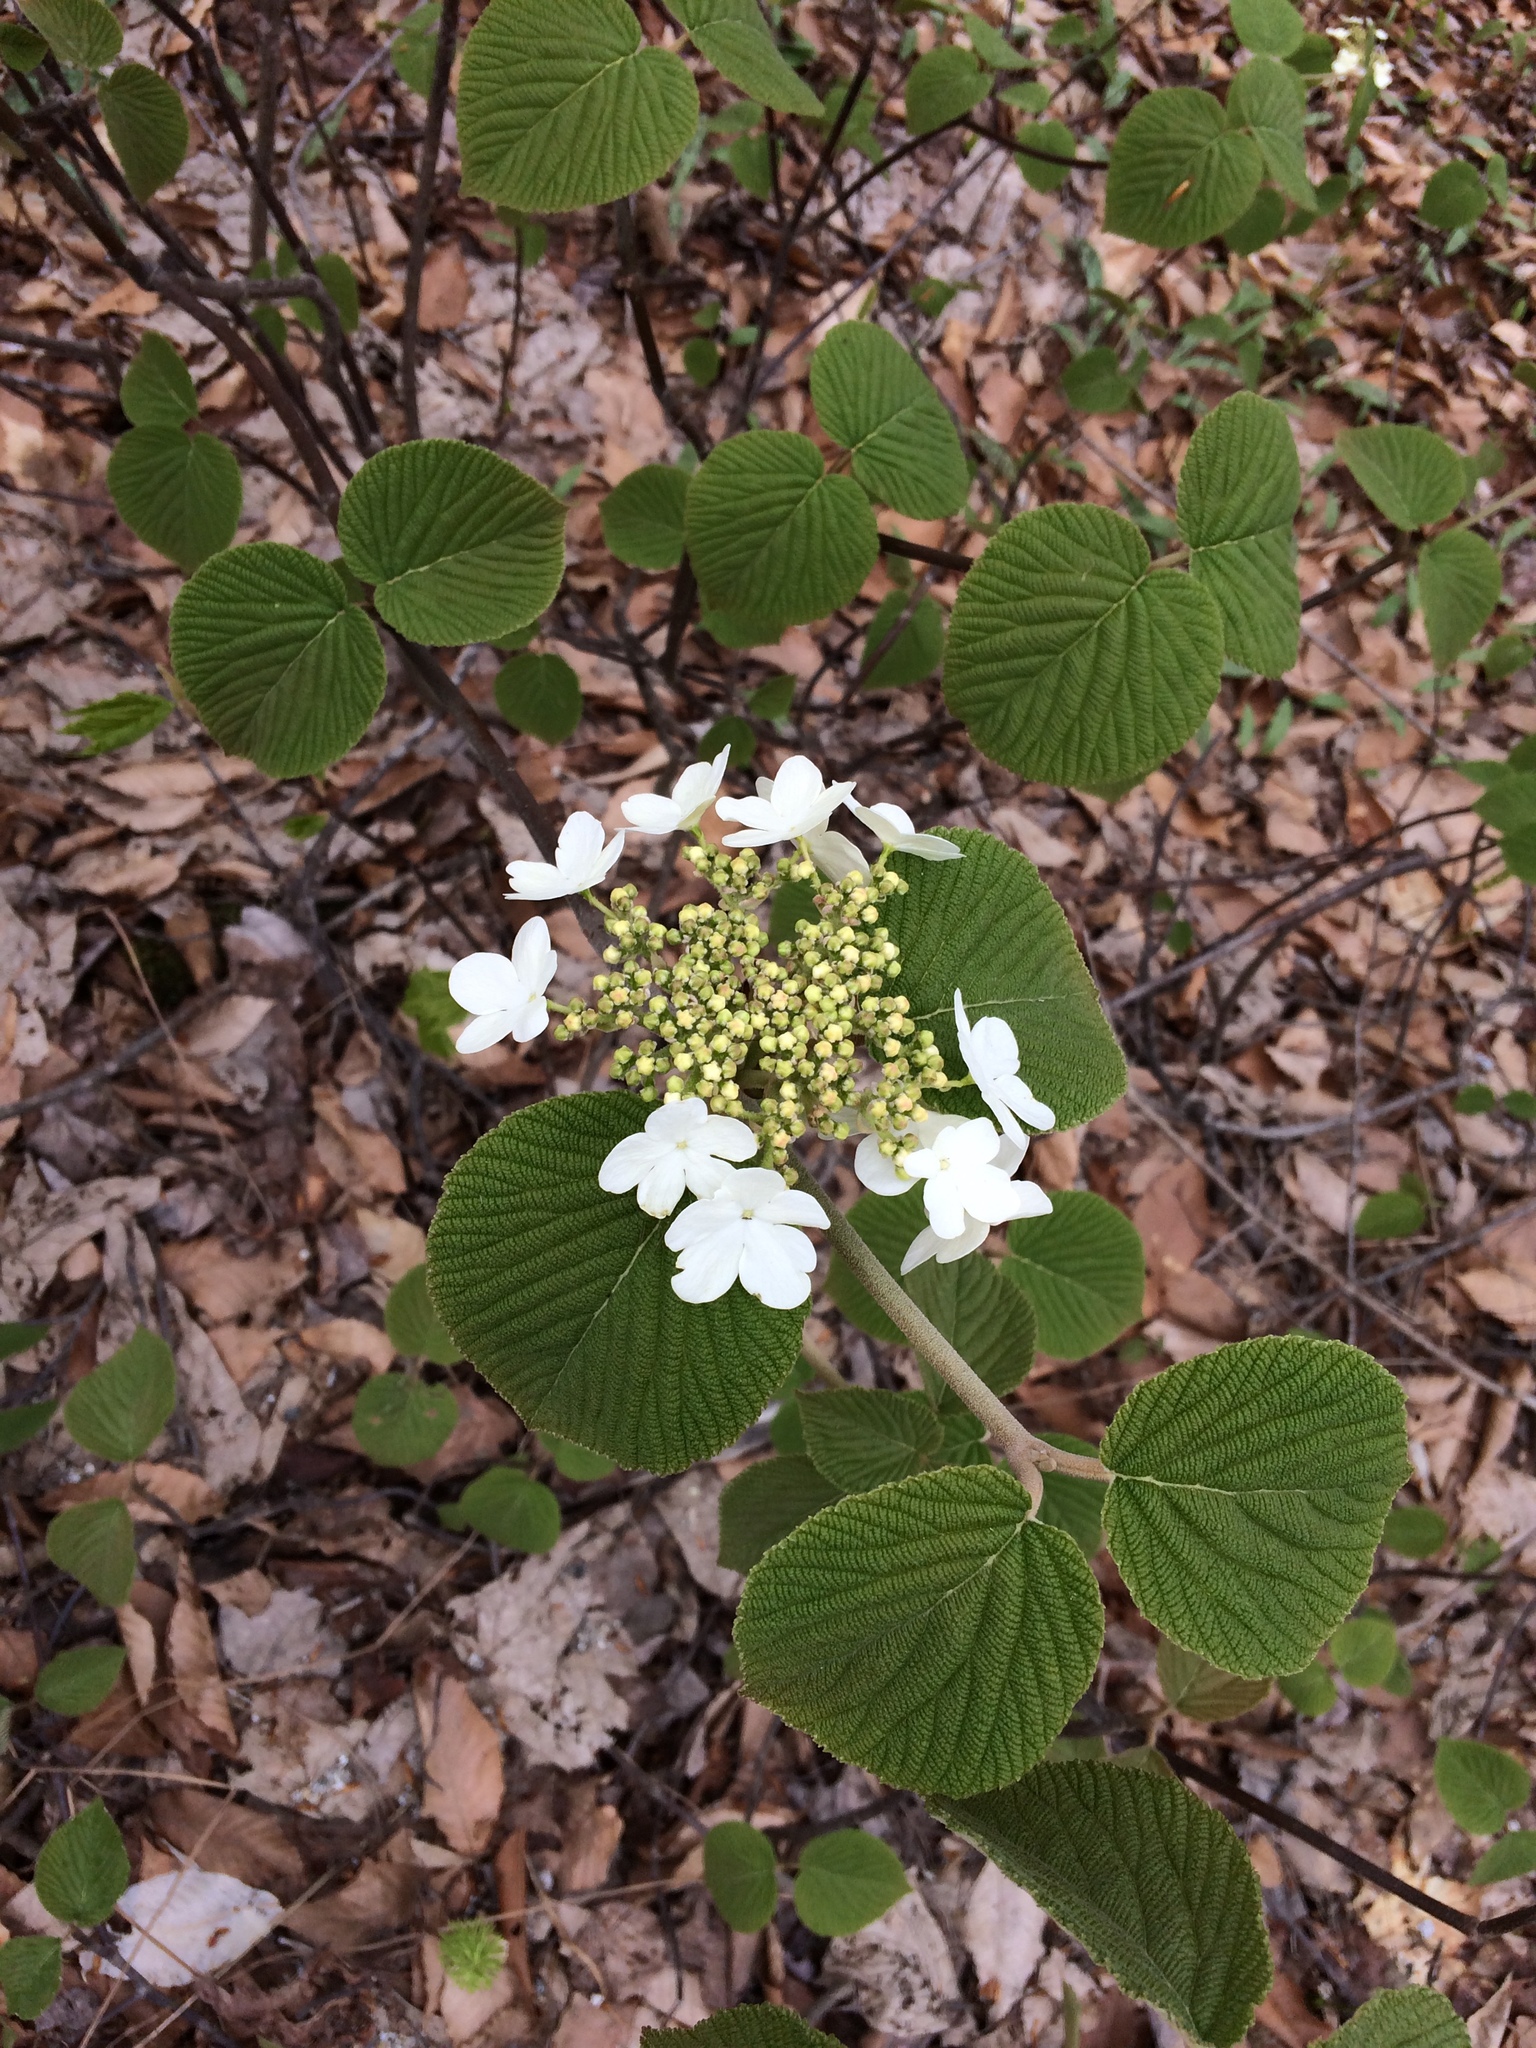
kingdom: Plantae
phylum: Tracheophyta
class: Magnoliopsida
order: Dipsacales
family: Viburnaceae
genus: Viburnum
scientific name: Viburnum lantanoides
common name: Hobblebush
